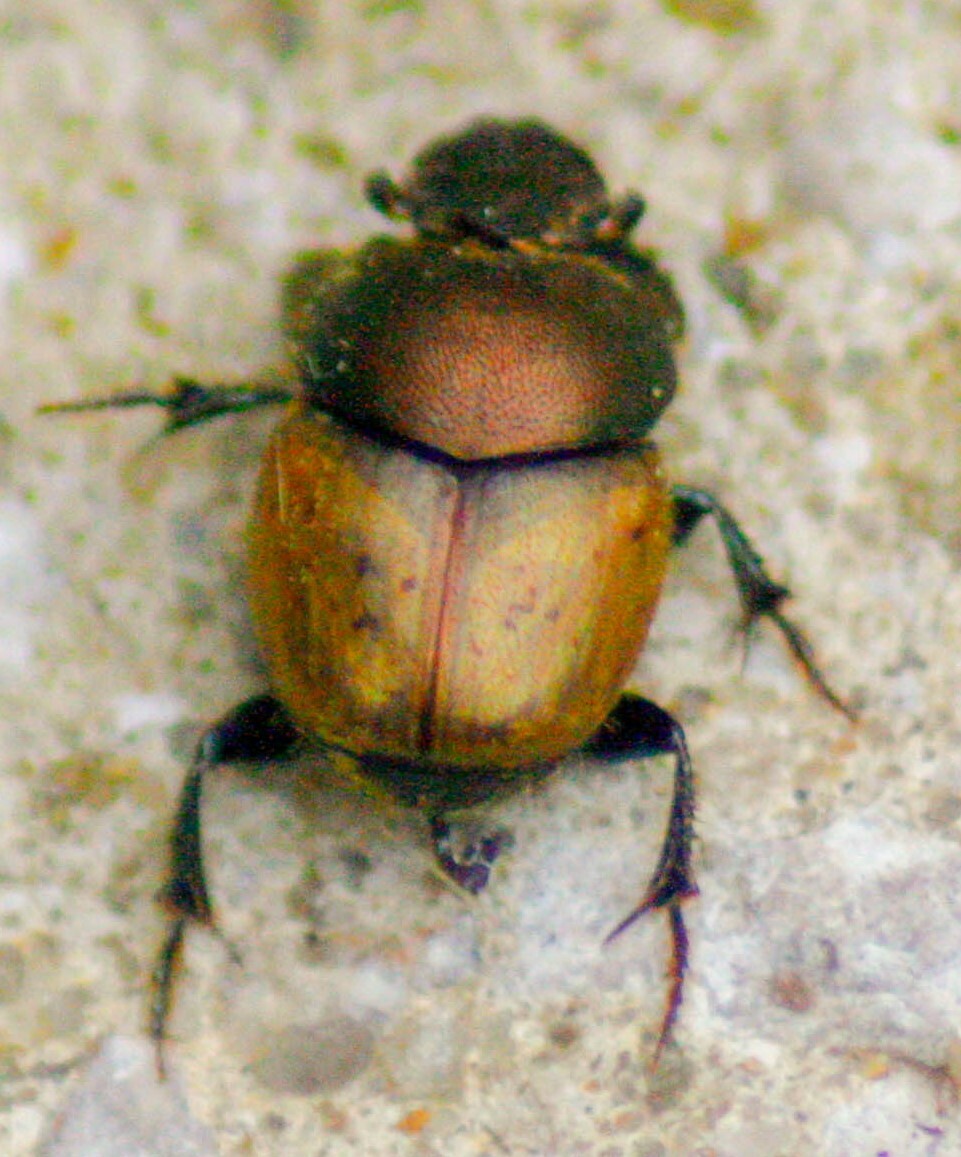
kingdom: Animalia
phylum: Arthropoda
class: Insecta
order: Coleoptera
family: Scarabaeidae
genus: Onthophagus
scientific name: Onthophagus coenobita
